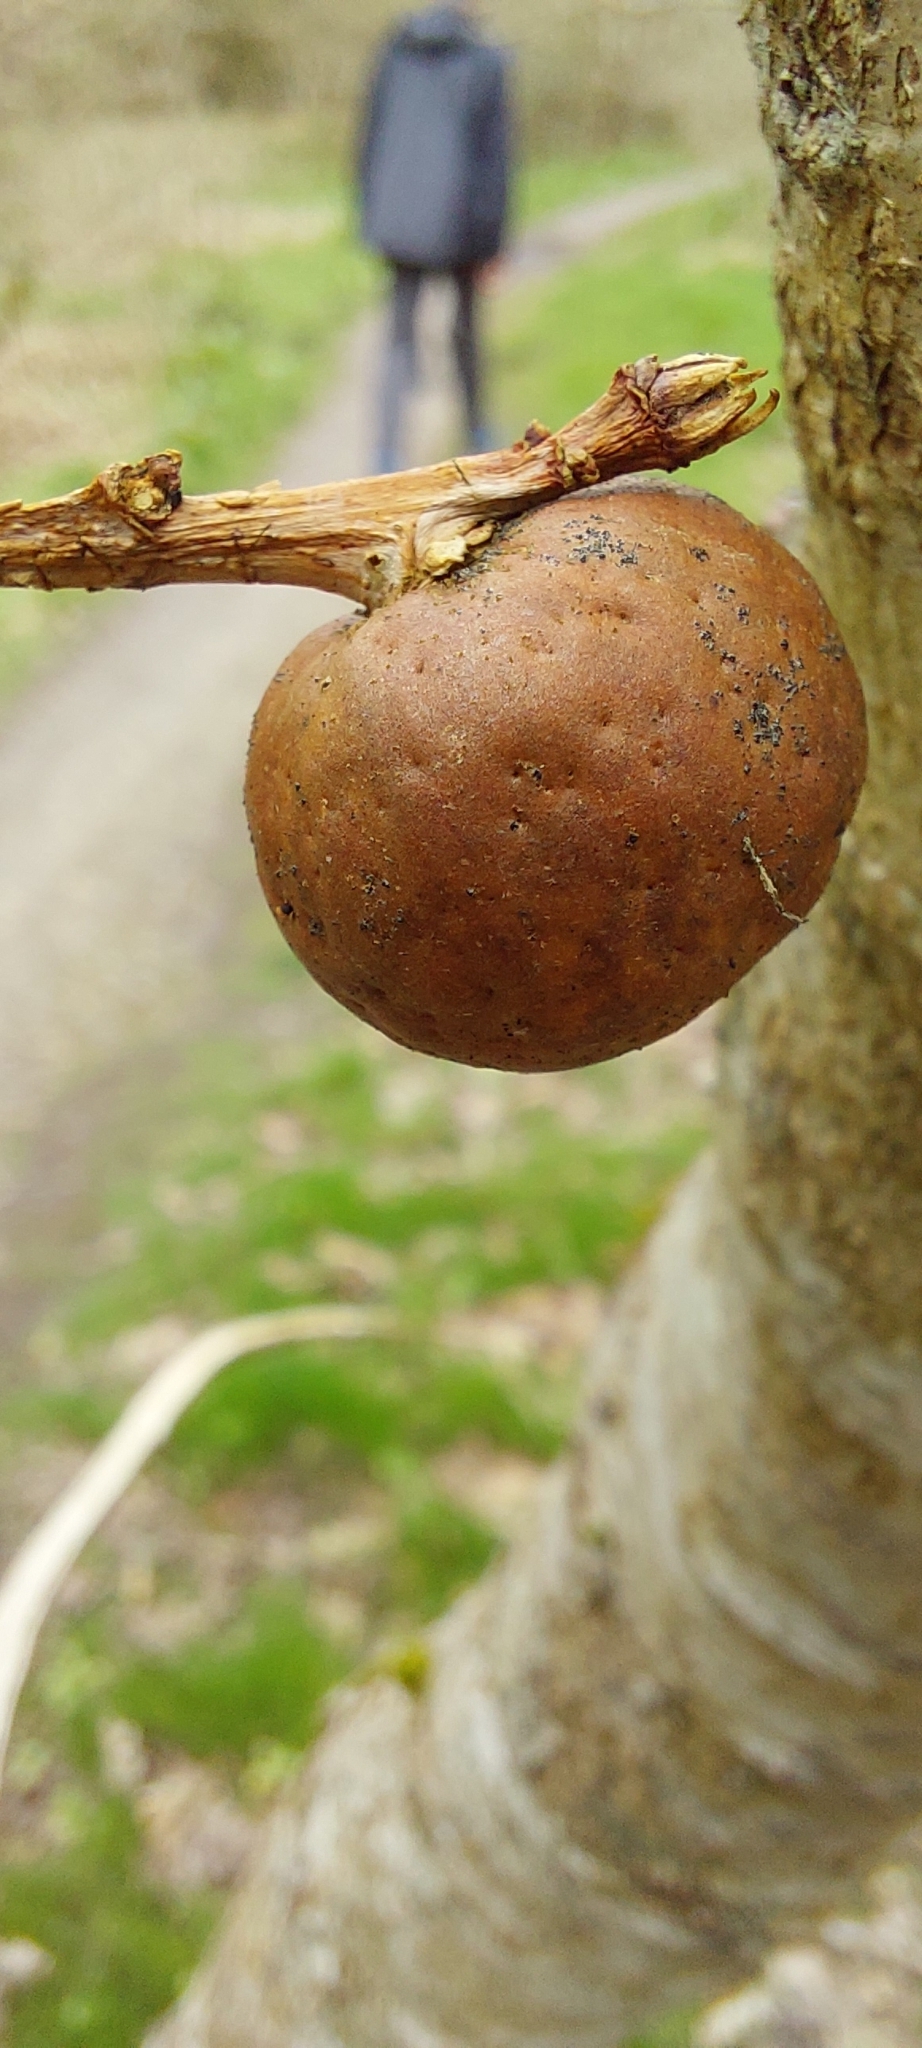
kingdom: Animalia
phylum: Arthropoda
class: Insecta
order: Hymenoptera
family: Cynipidae
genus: Andricus
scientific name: Andricus kollari
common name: Marble gall
